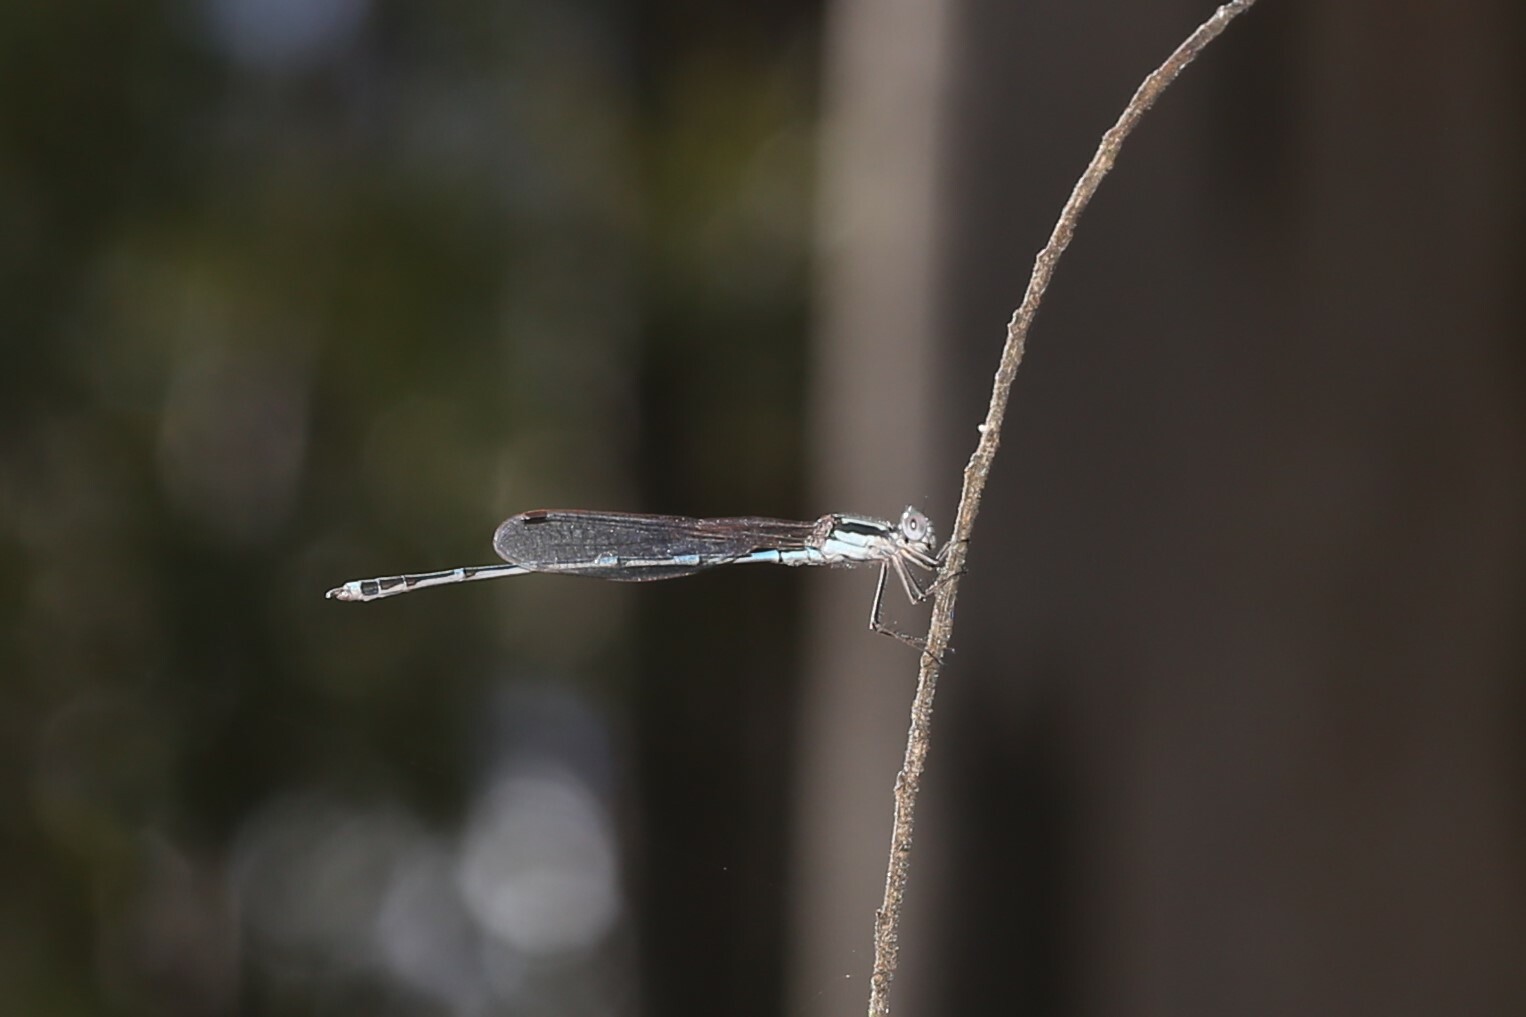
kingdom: Animalia
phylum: Arthropoda
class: Insecta
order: Odonata
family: Lestidae
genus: Austrolestes
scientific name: Austrolestes leda
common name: Wandering ringtail
